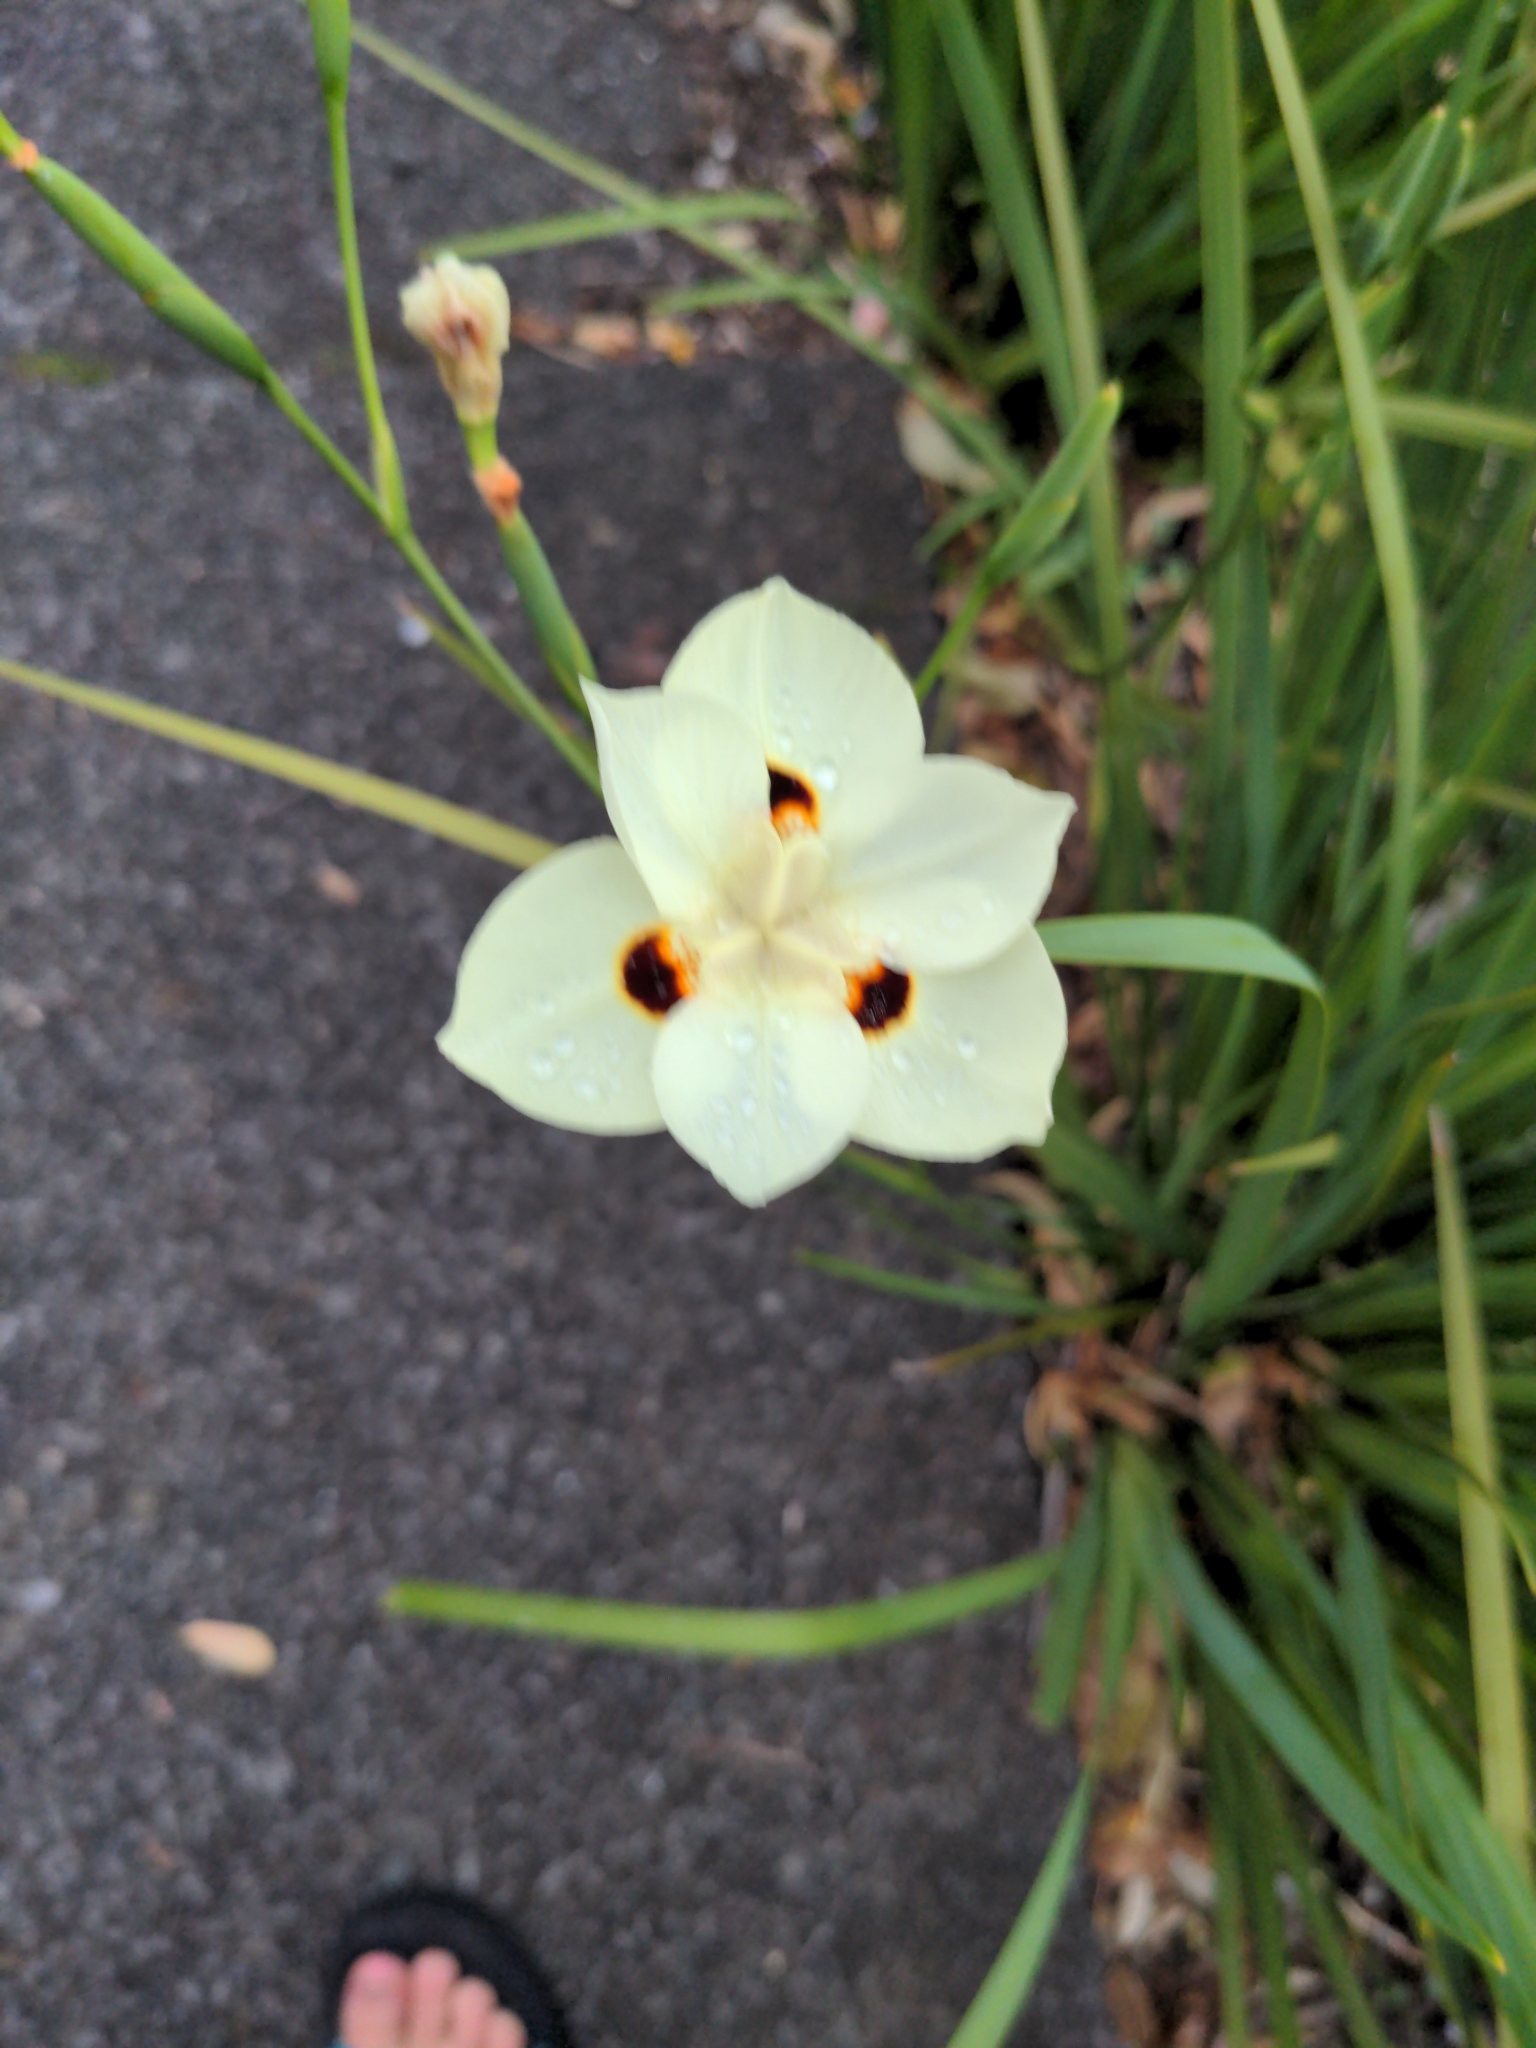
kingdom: Plantae
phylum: Tracheophyta
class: Liliopsida
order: Asparagales
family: Iridaceae
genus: Dietes
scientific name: Dietes bicolor
